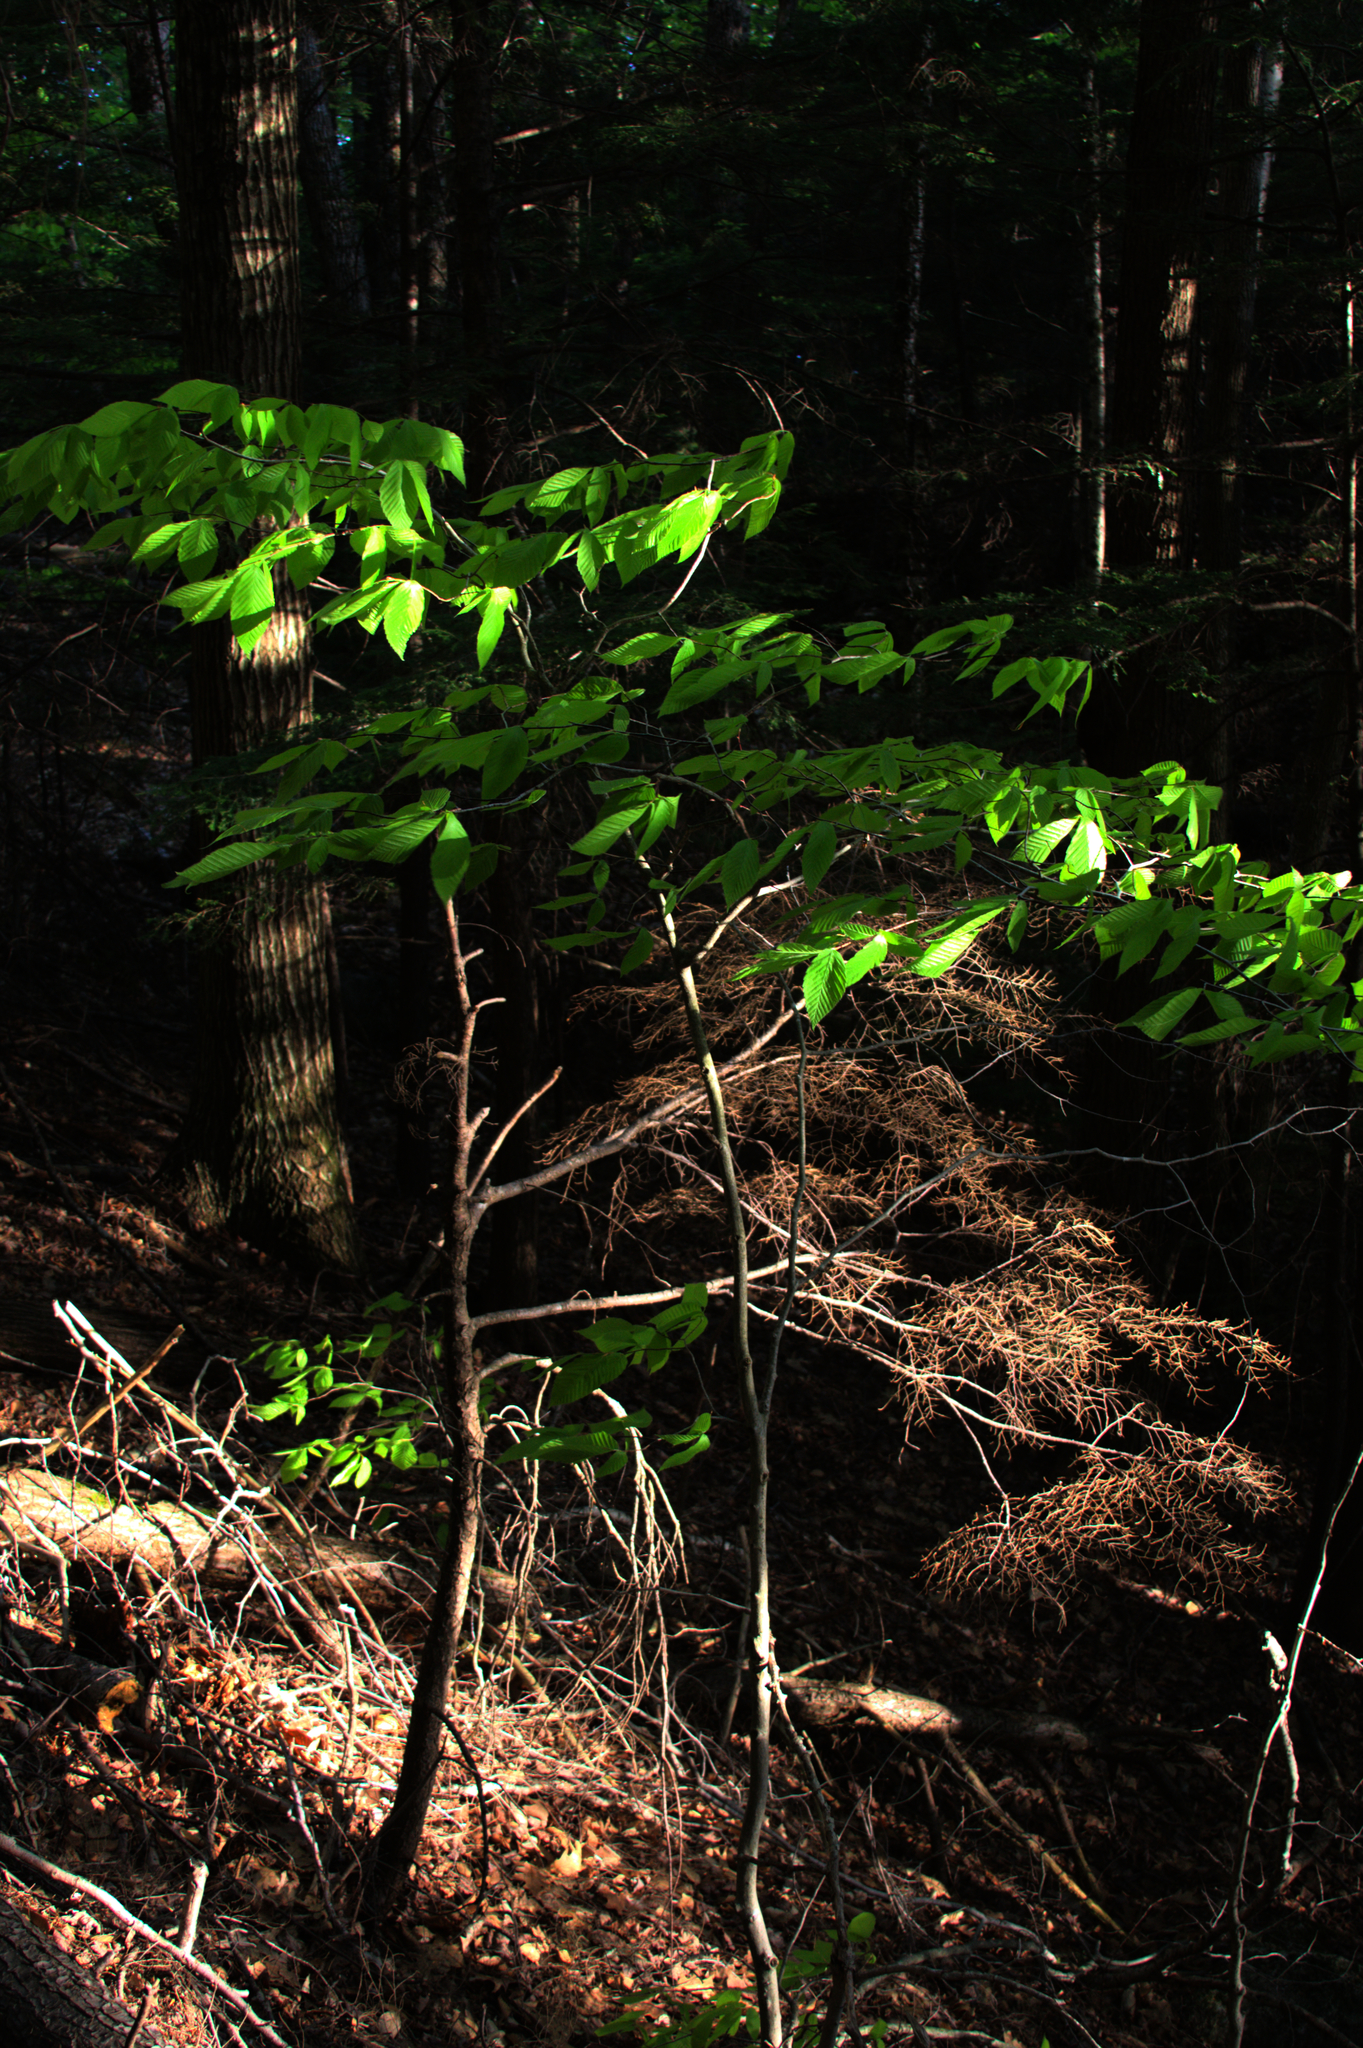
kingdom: Plantae
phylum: Tracheophyta
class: Magnoliopsida
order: Fagales
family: Fagaceae
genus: Fagus
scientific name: Fagus grandifolia
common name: American beech
